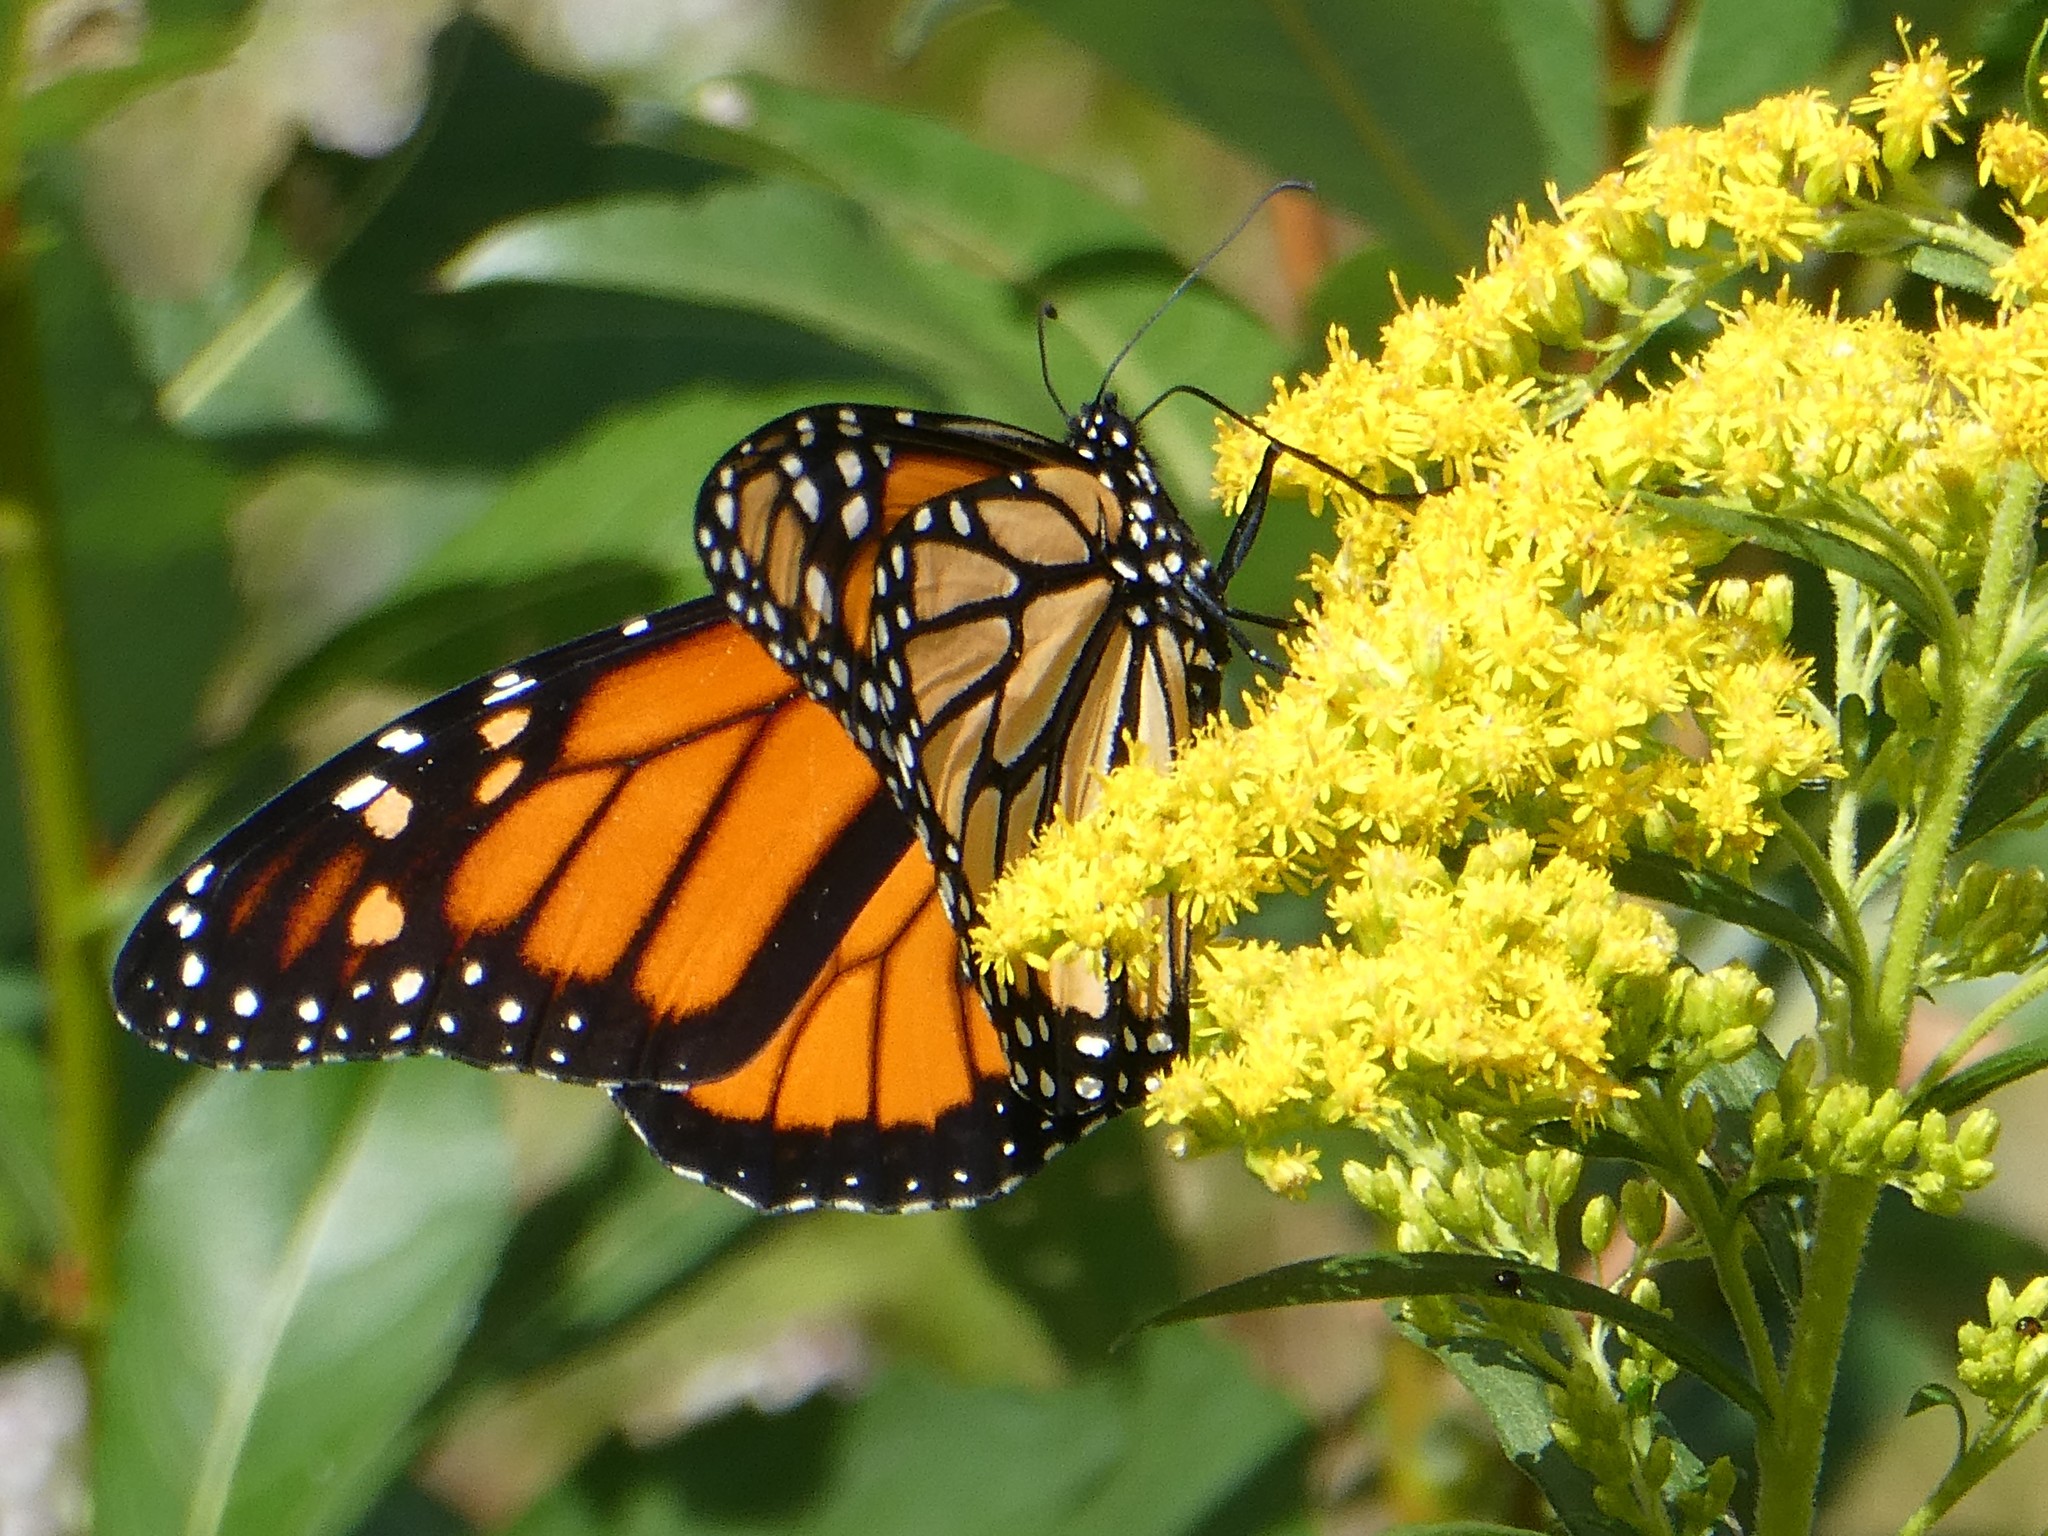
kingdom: Animalia
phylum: Arthropoda
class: Insecta
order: Lepidoptera
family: Nymphalidae
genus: Danaus
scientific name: Danaus plexippus
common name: Monarch
